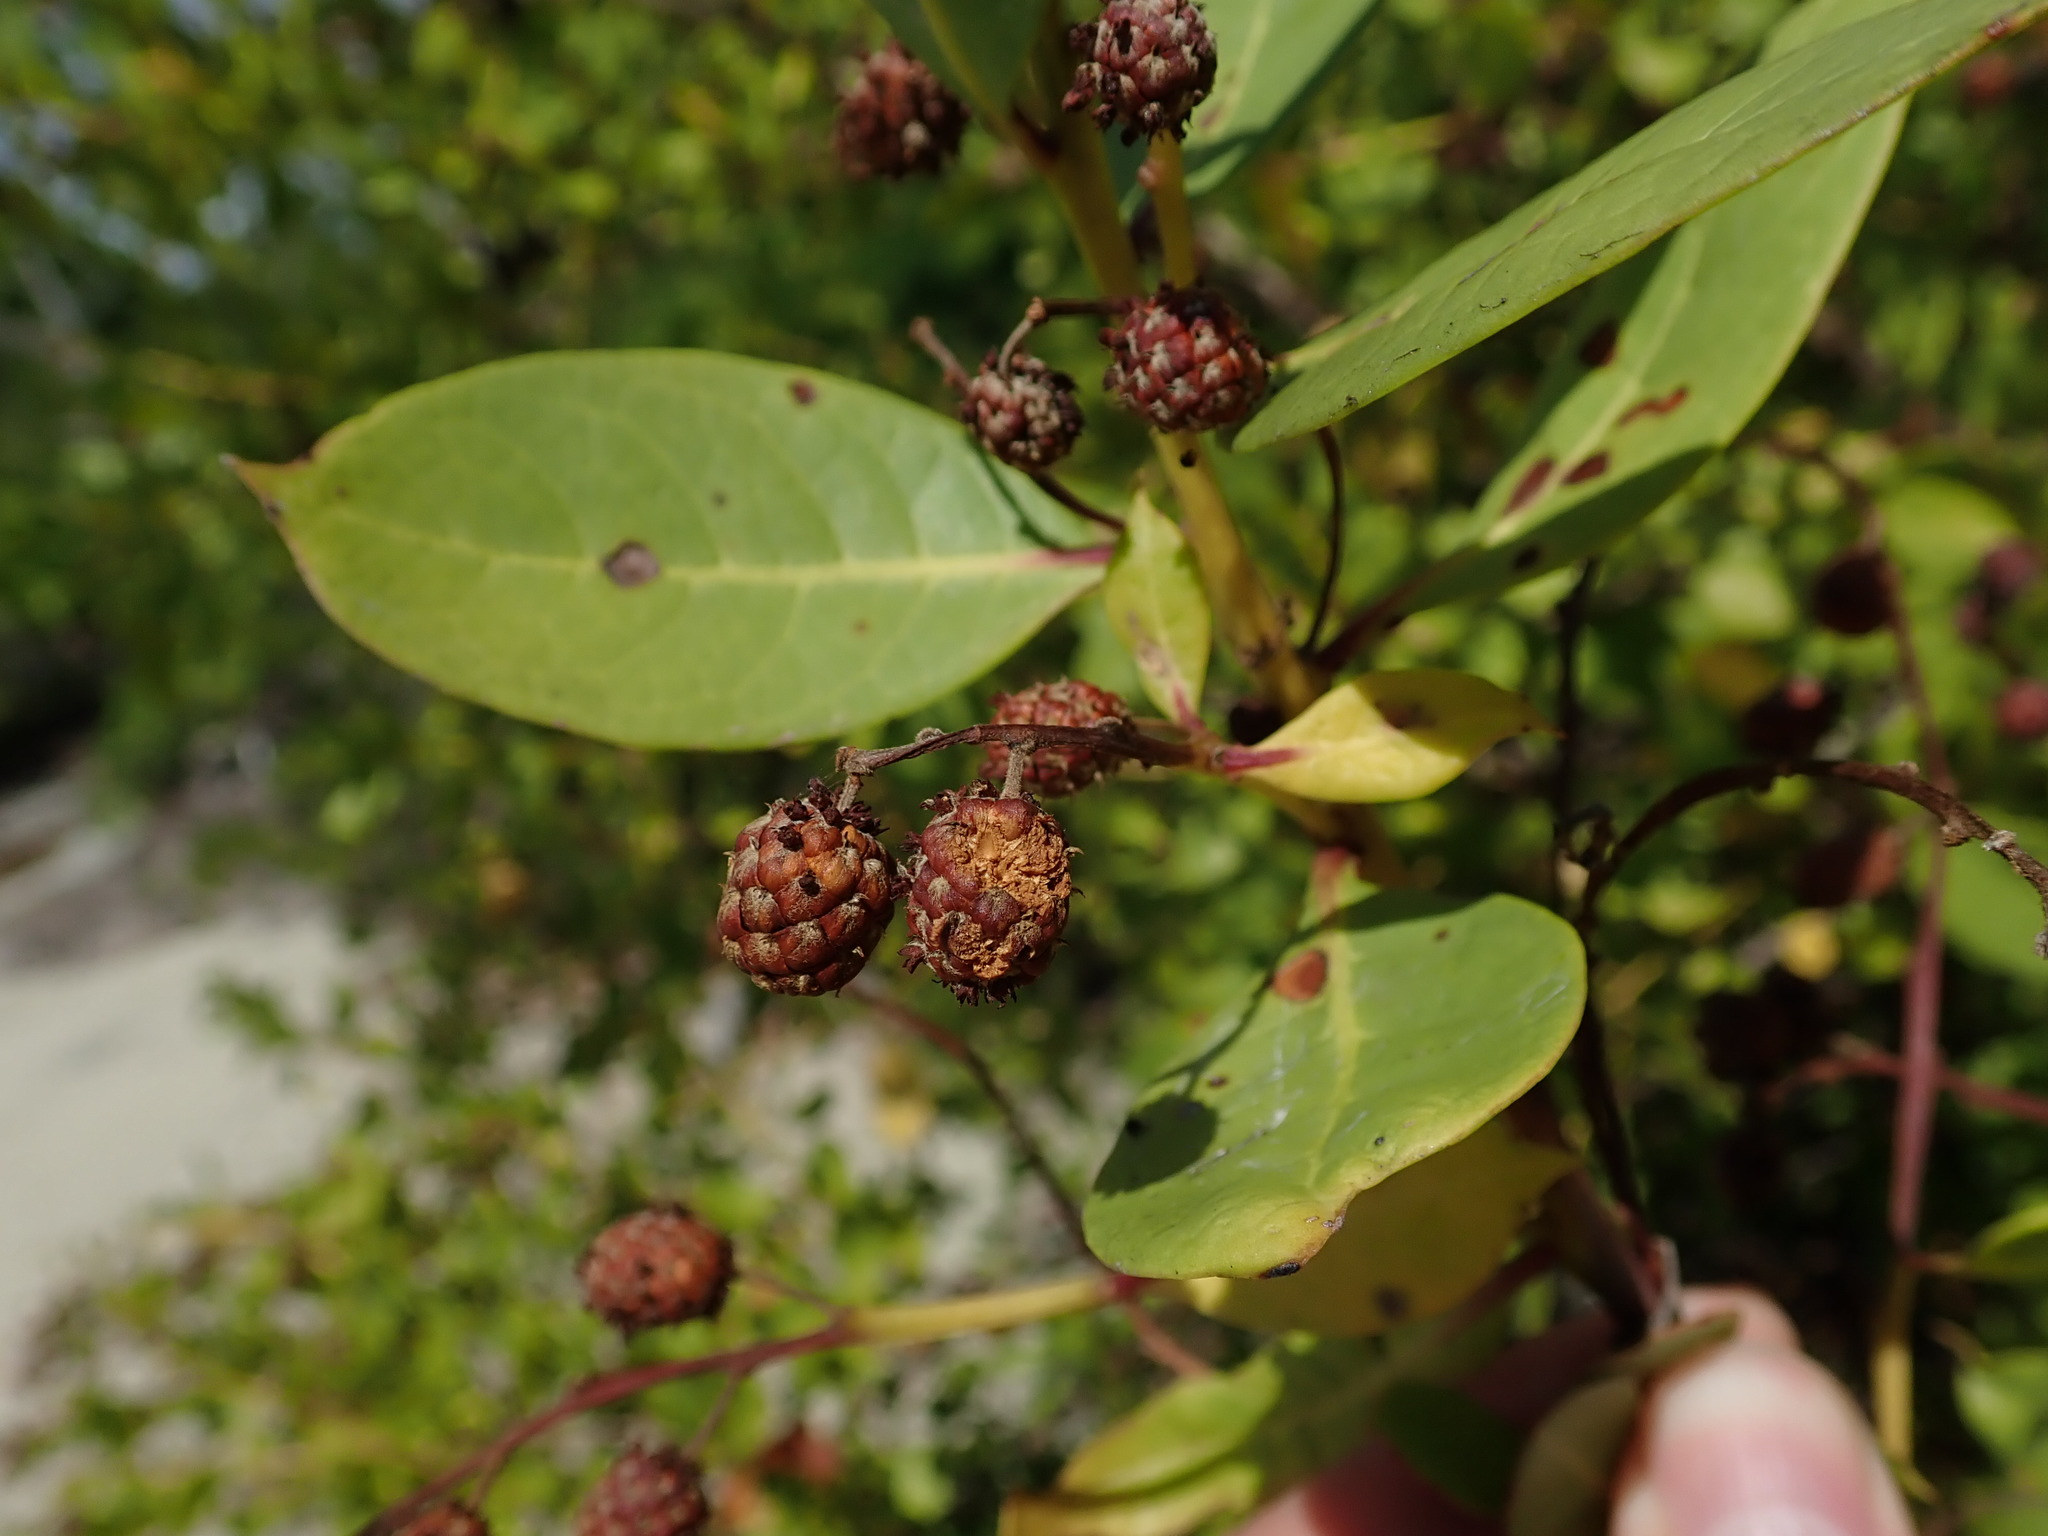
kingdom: Plantae
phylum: Tracheophyta
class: Magnoliopsida
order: Myrtales
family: Combretaceae
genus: Conocarpus
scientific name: Conocarpus erectus
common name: Button mangrove
